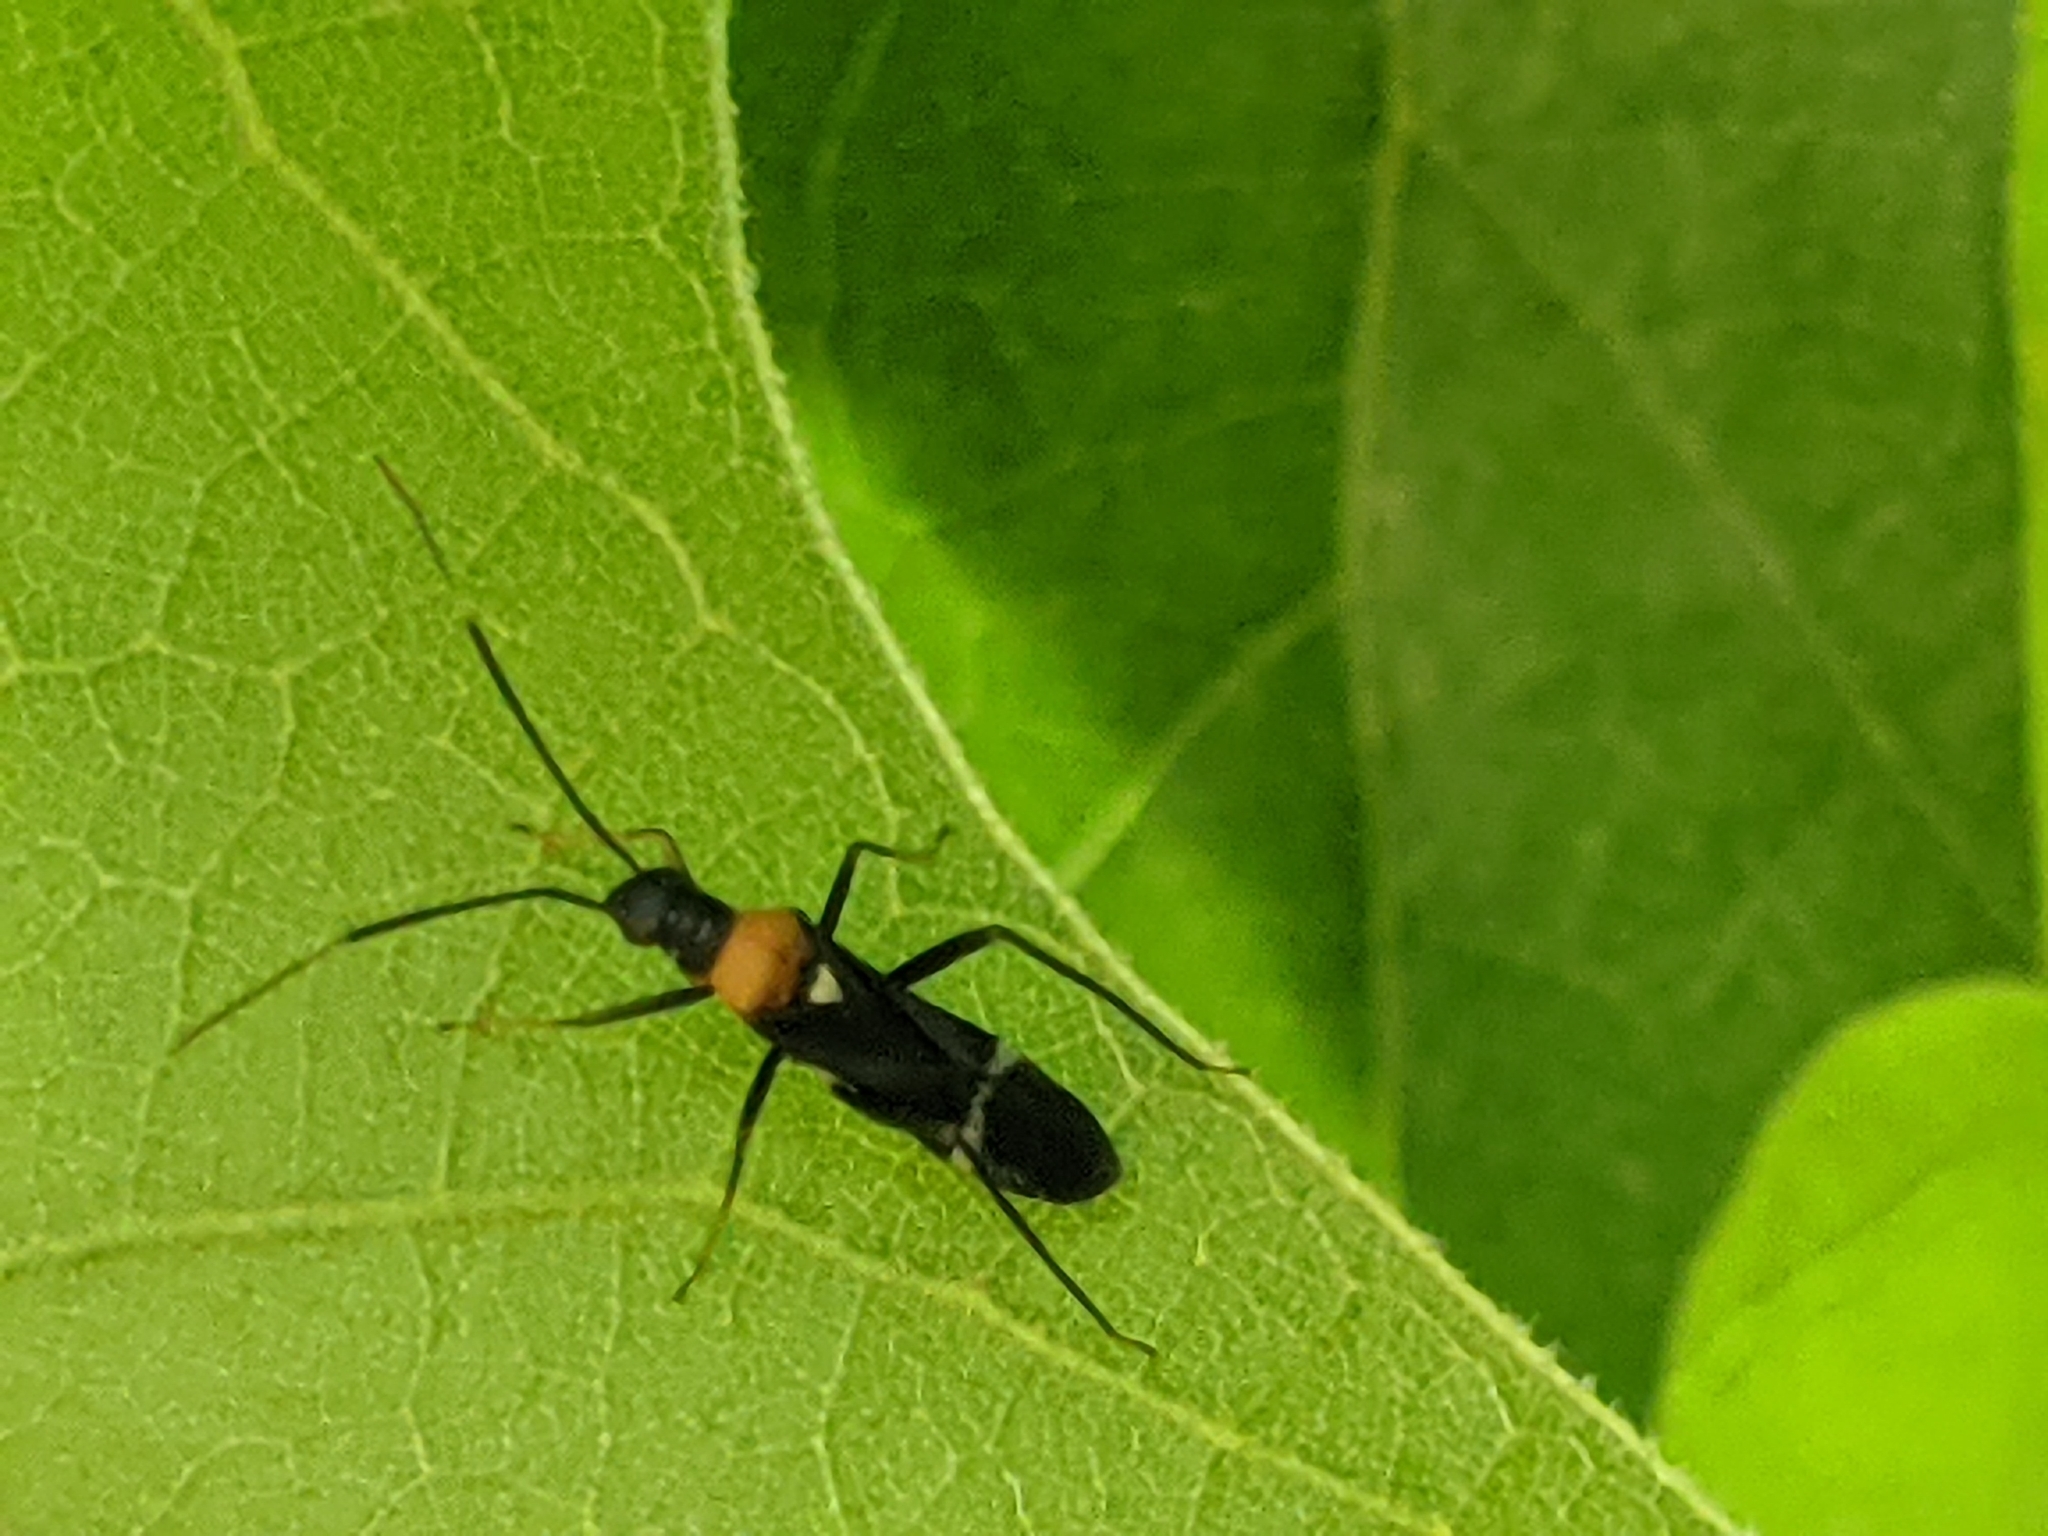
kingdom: Animalia
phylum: Arthropoda
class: Insecta
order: Hemiptera
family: Miridae
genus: Pseudoxenetus
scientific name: Pseudoxenetus regalis
